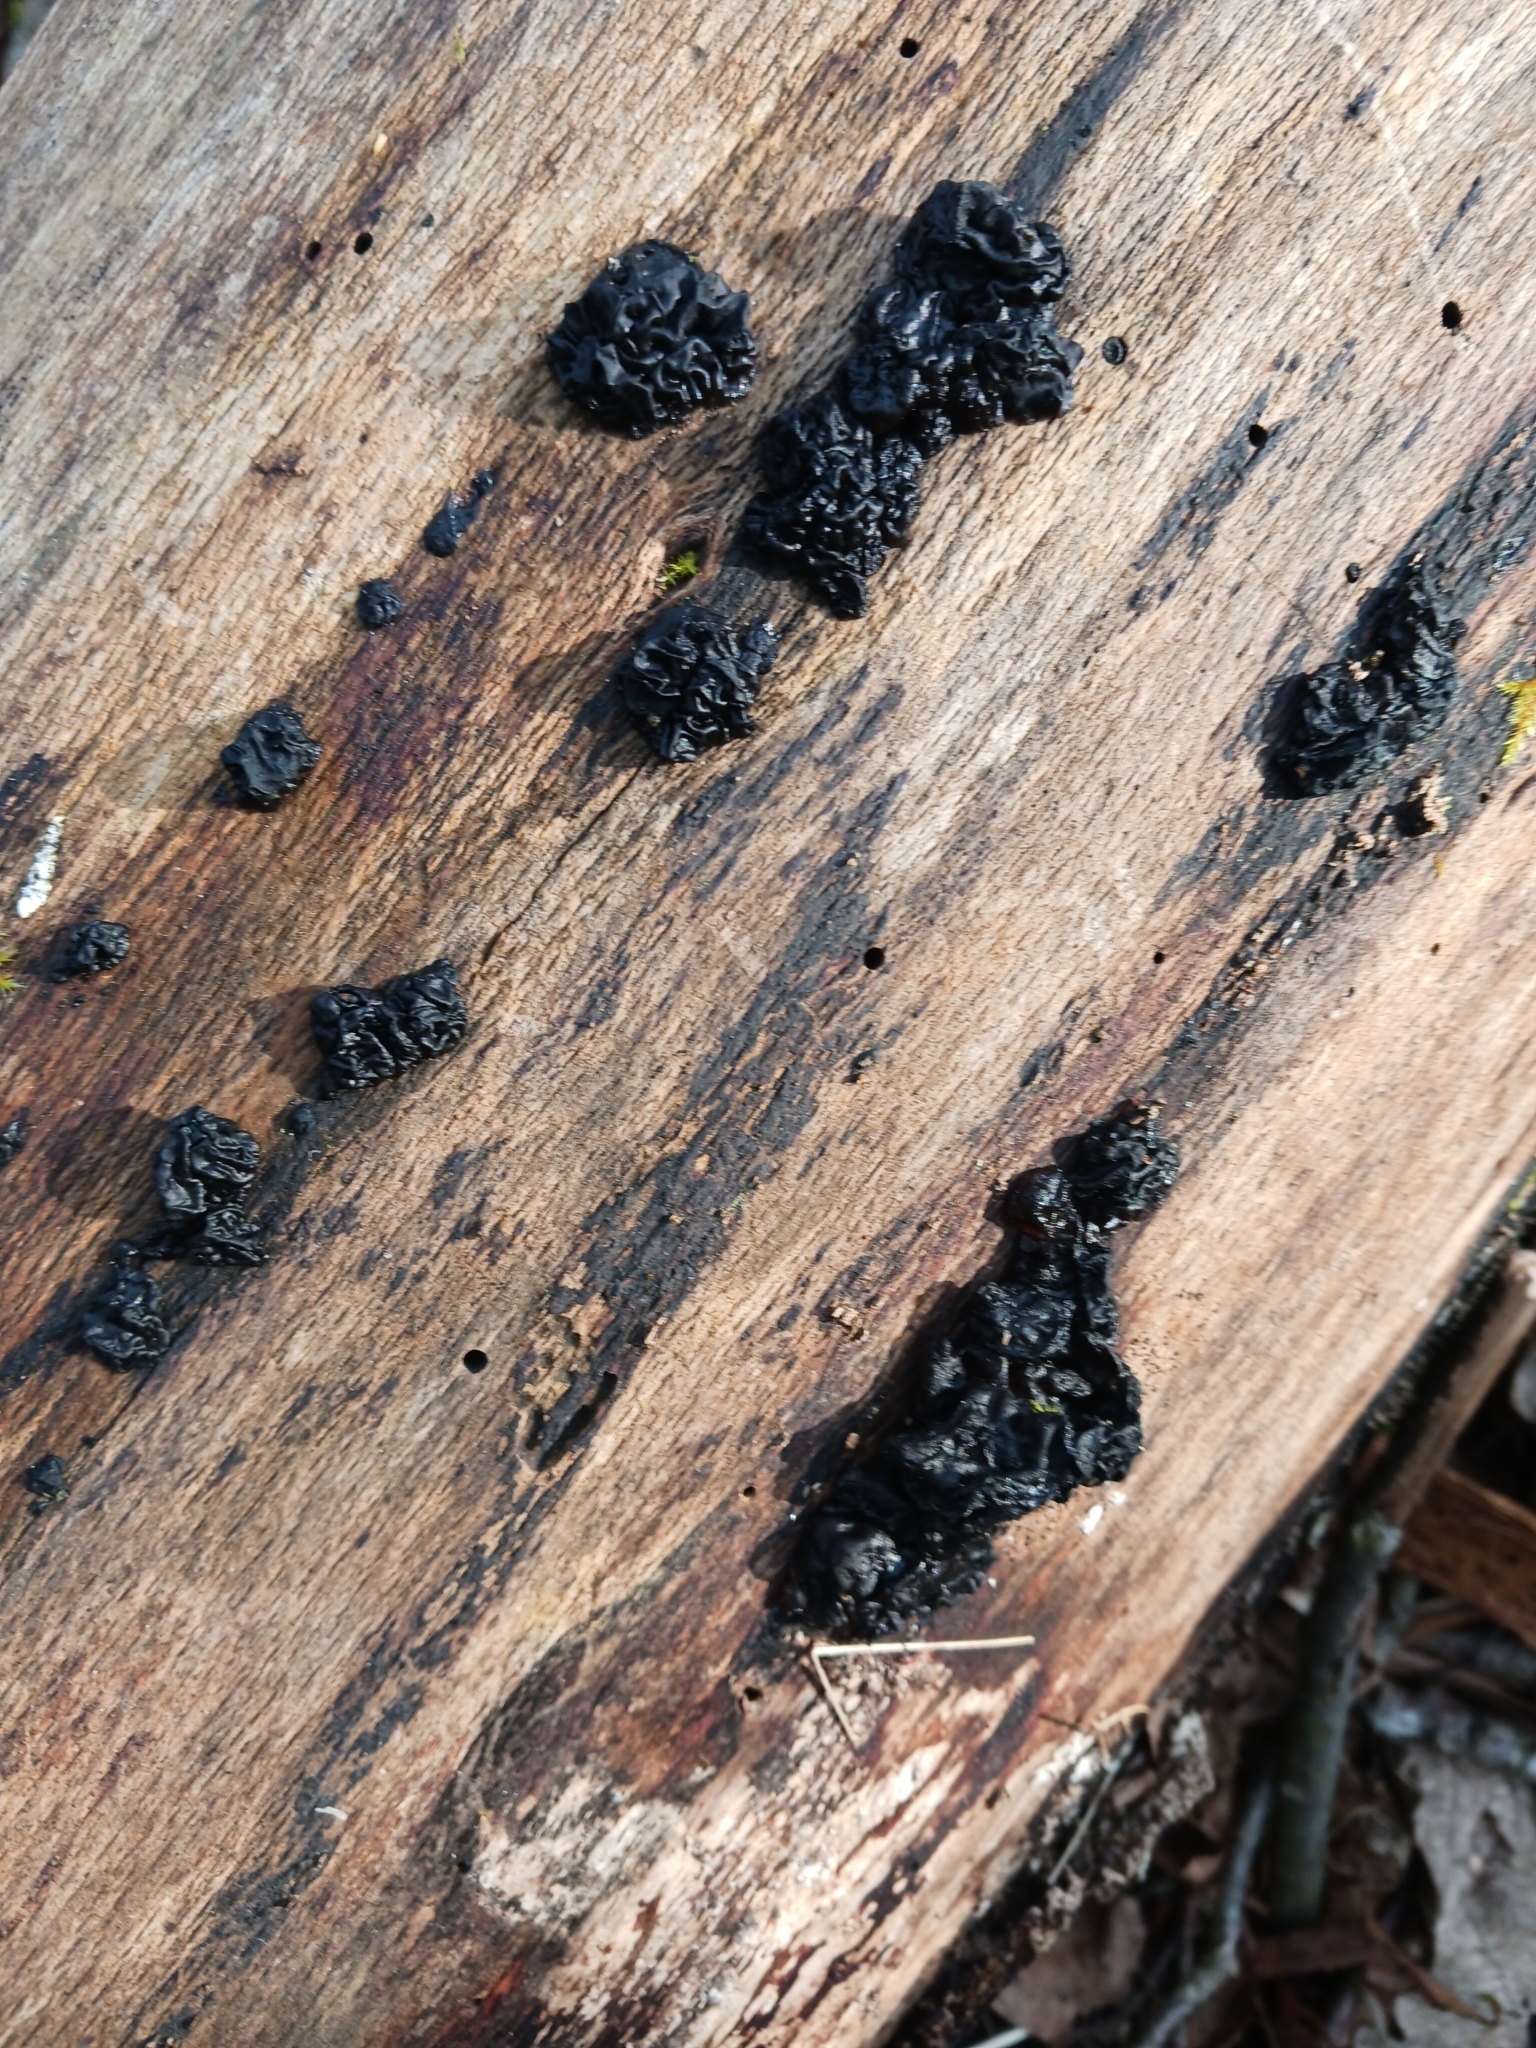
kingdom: Fungi
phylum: Basidiomycota
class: Agaricomycetes
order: Auriculariales
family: Auriculariaceae
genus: Exidia
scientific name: Exidia nigricans
